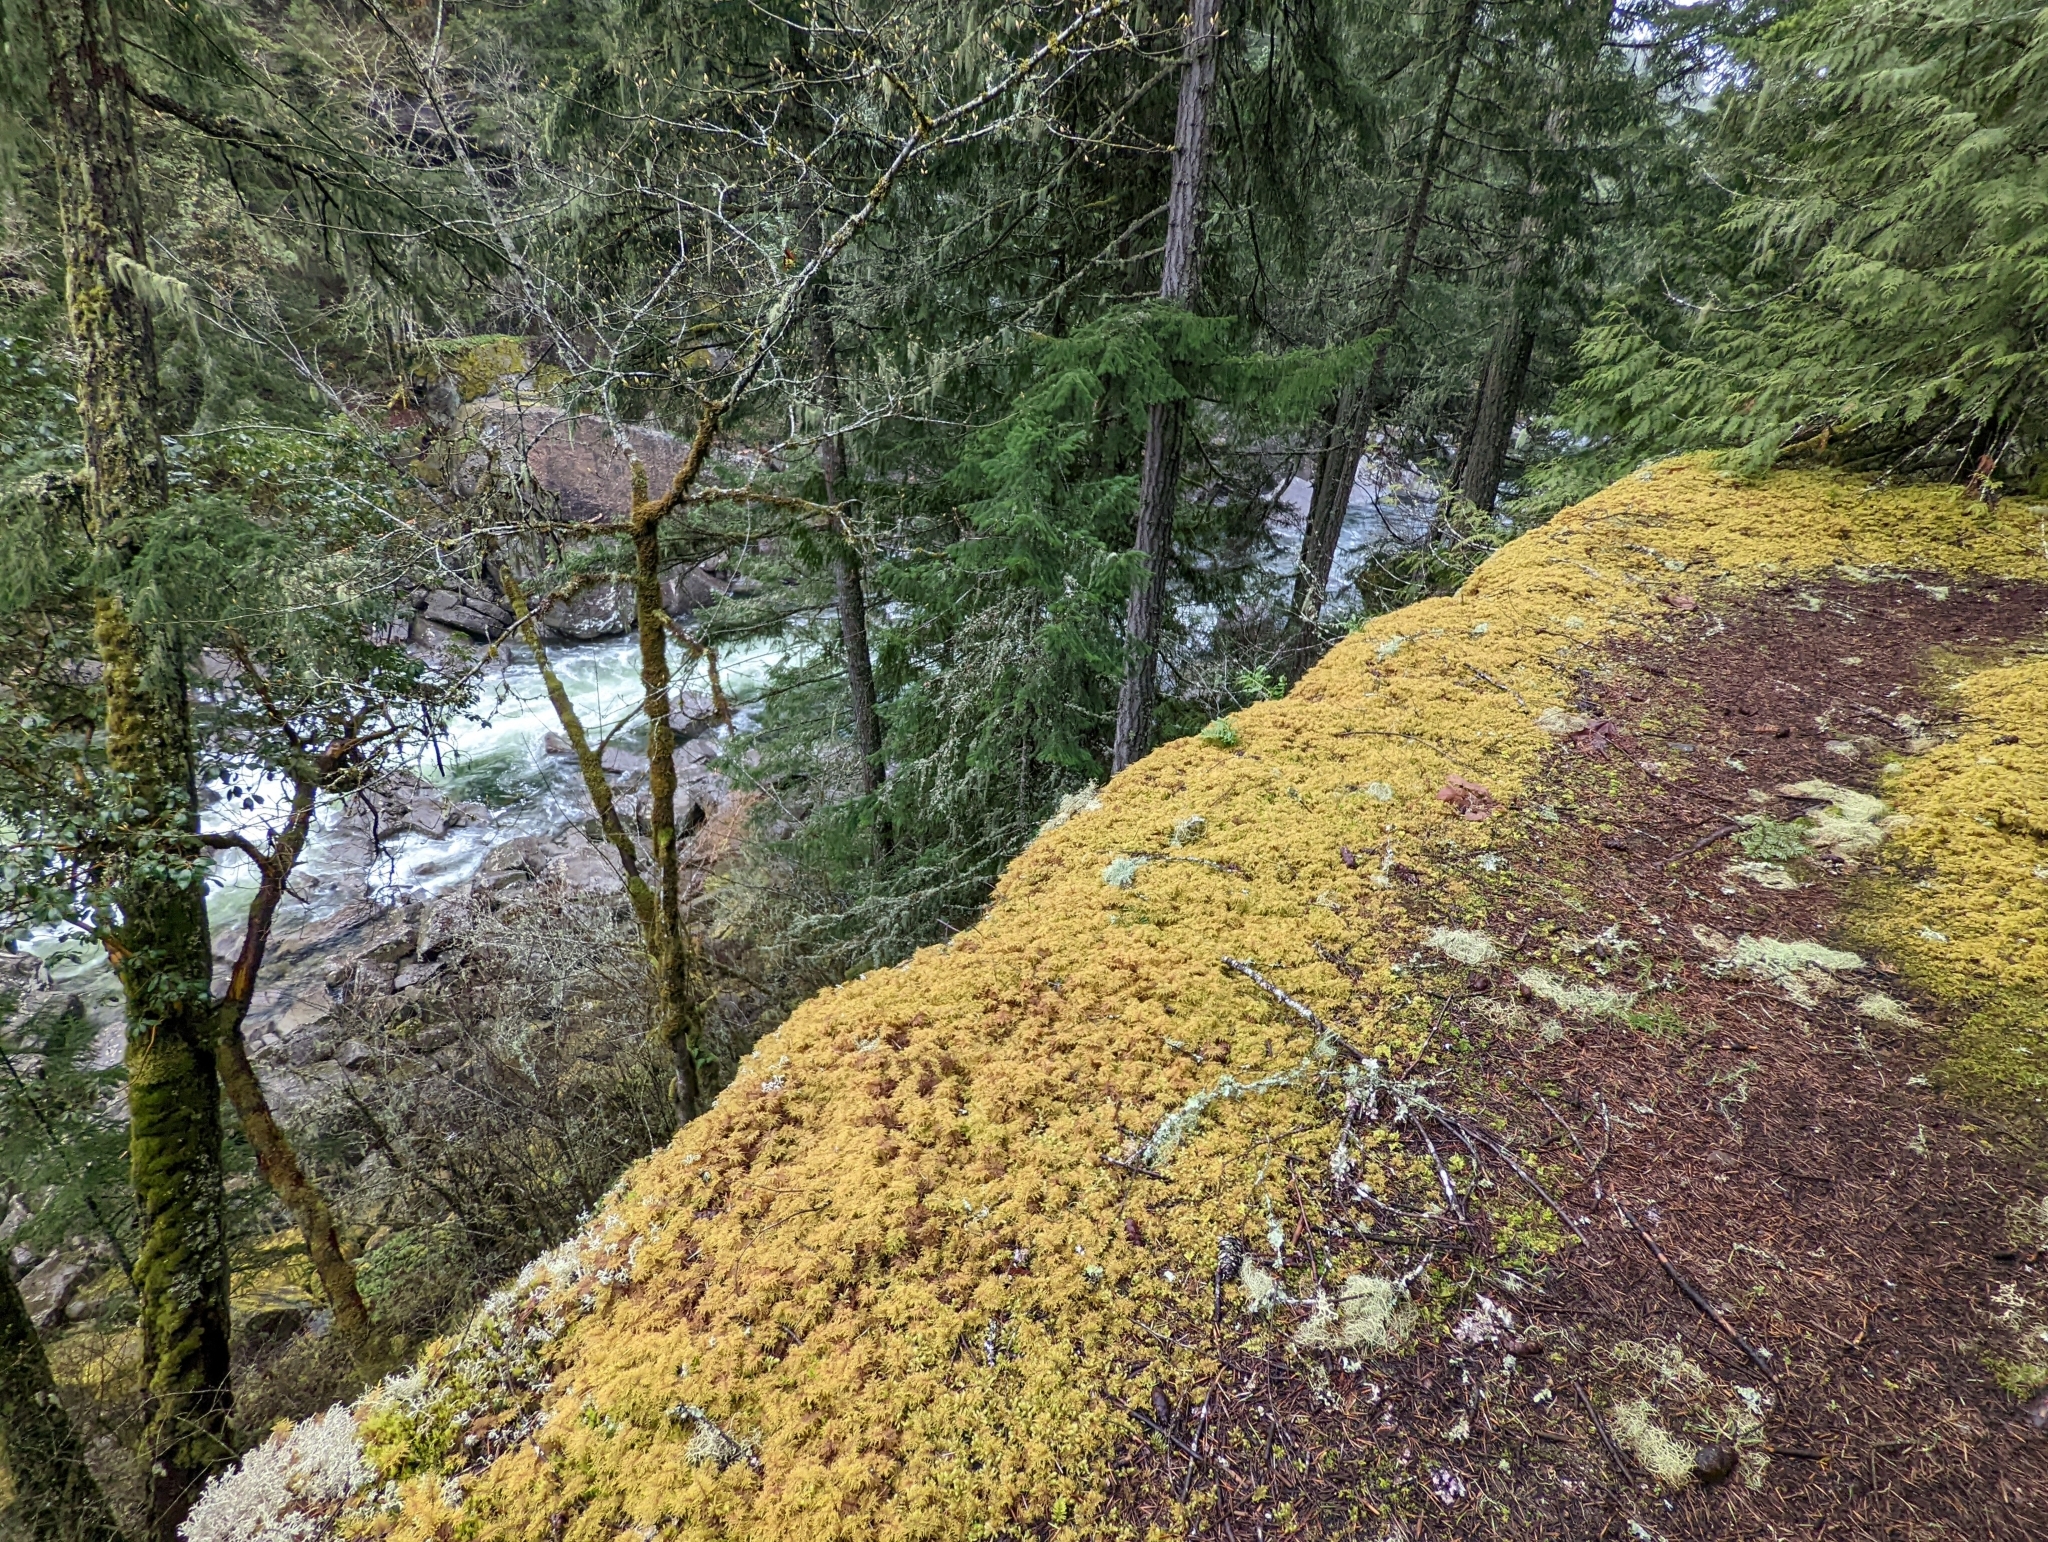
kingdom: Plantae
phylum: Bryophyta
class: Bryopsida
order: Hypnales
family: Hylocomiaceae
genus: Hylocomium
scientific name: Hylocomium splendens
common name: Stairstep moss
